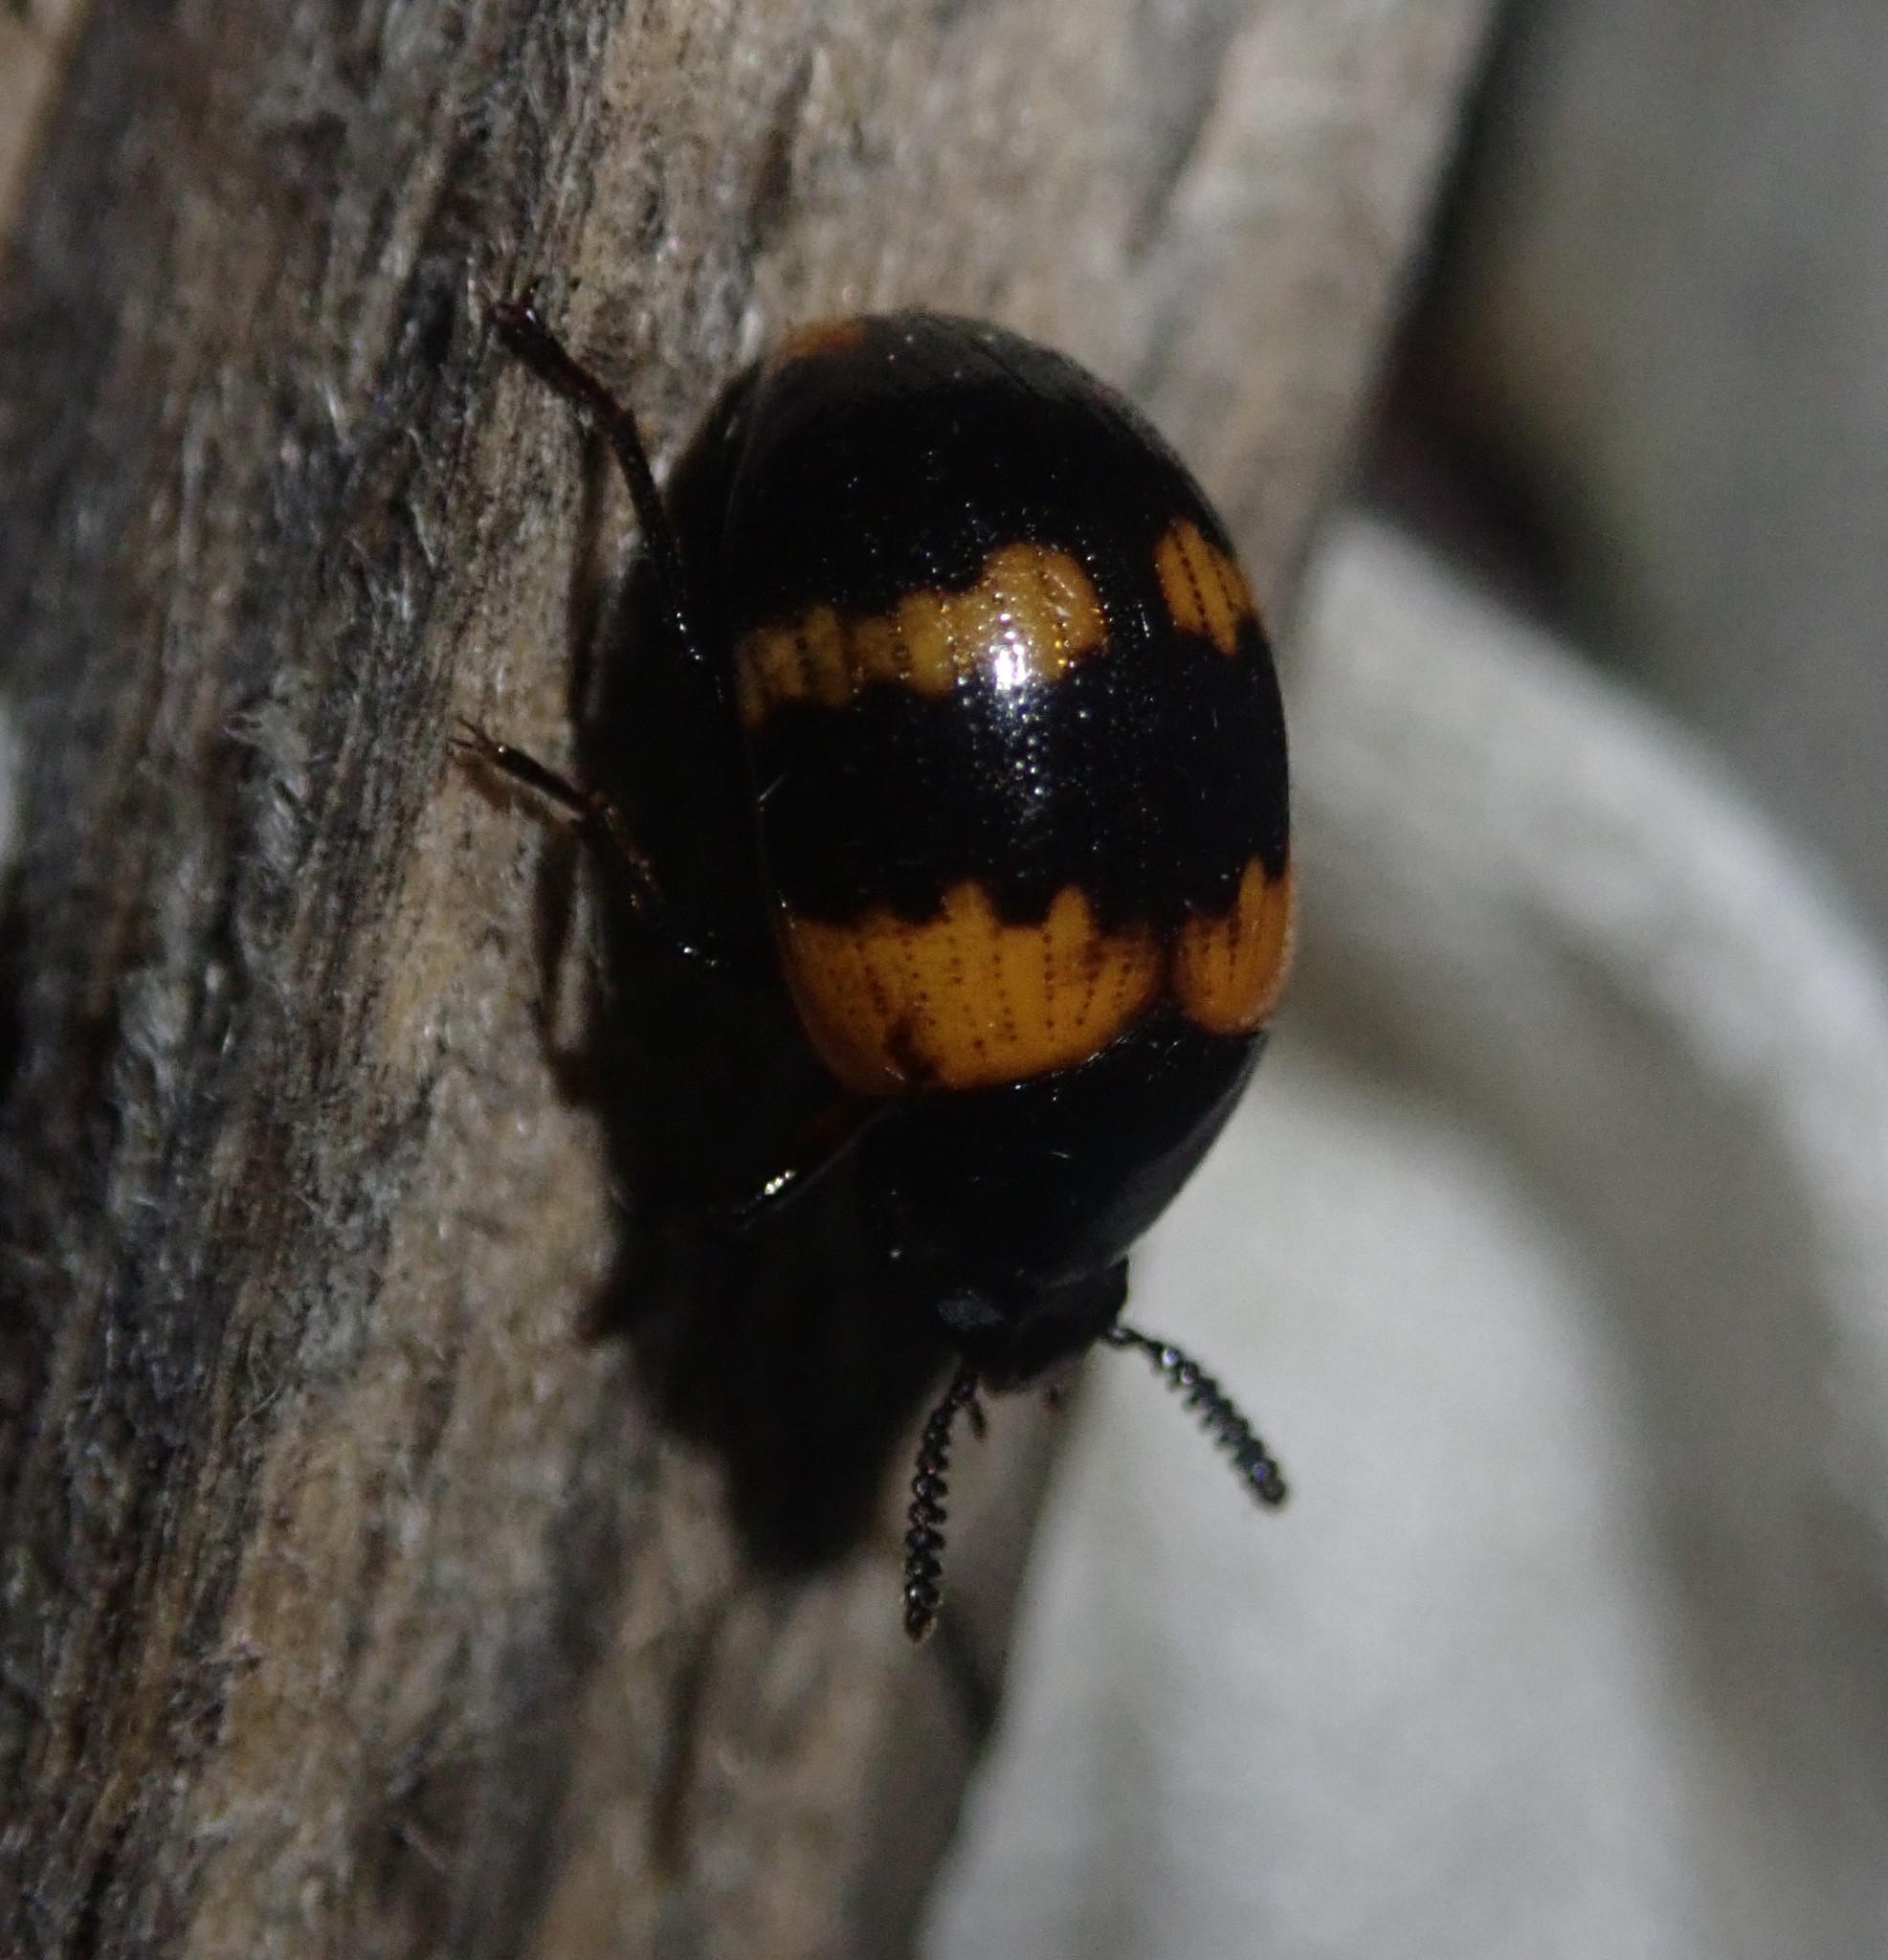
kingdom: Animalia
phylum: Arthropoda
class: Insecta
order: Coleoptera
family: Tenebrionidae
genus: Diaperis
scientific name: Diaperis boleti
